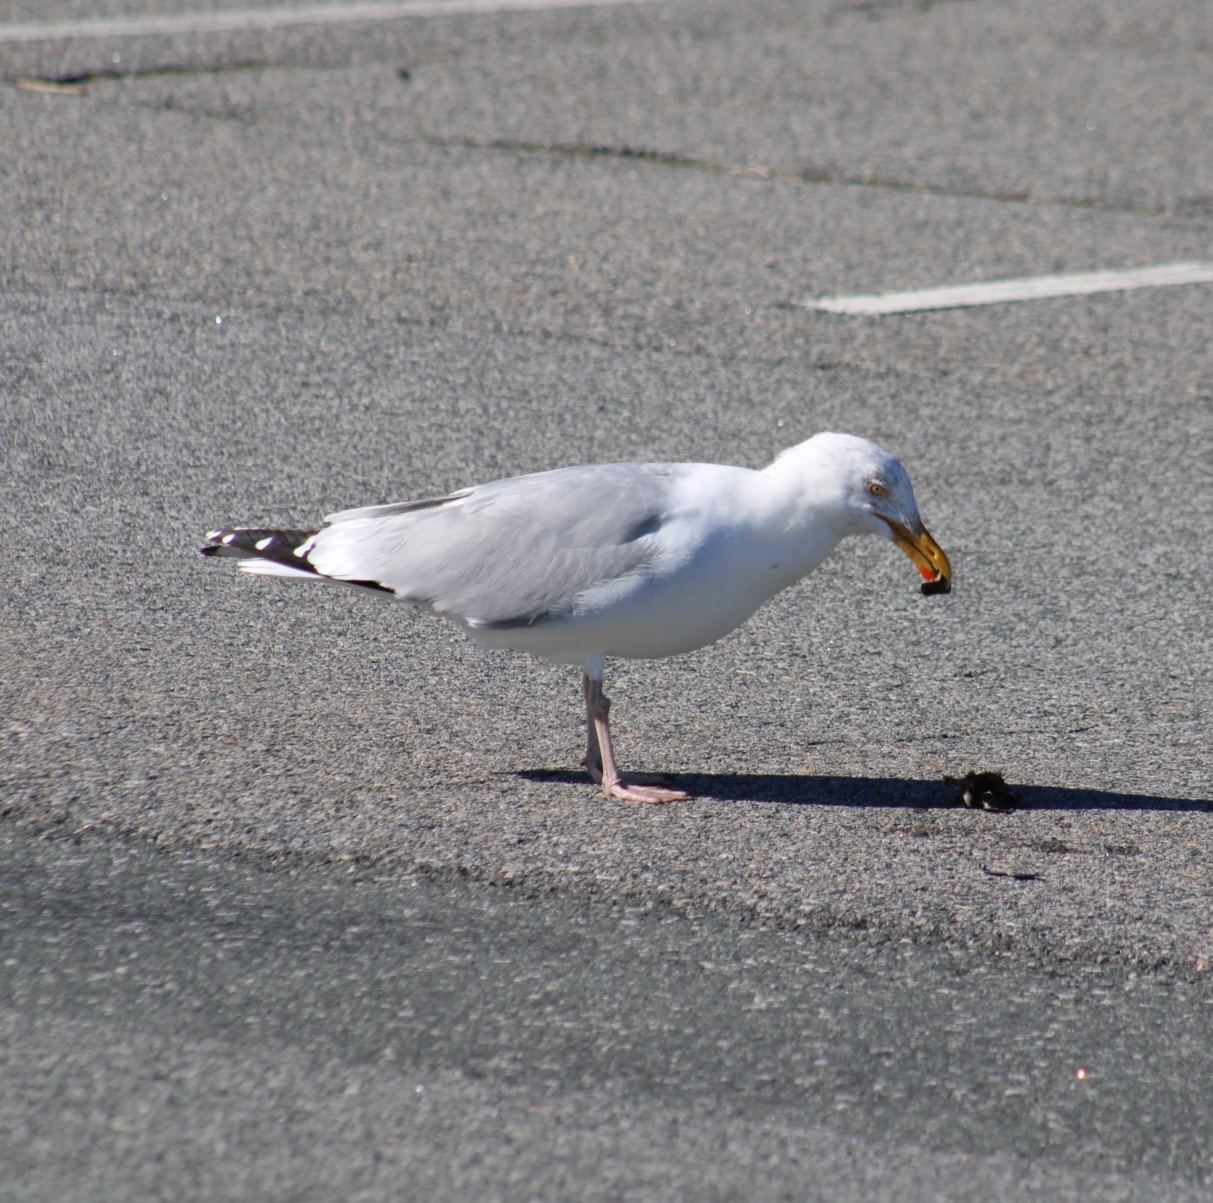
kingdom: Animalia
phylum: Chordata
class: Aves
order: Charadriiformes
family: Laridae
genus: Larus
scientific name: Larus argentatus
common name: Herring gull
